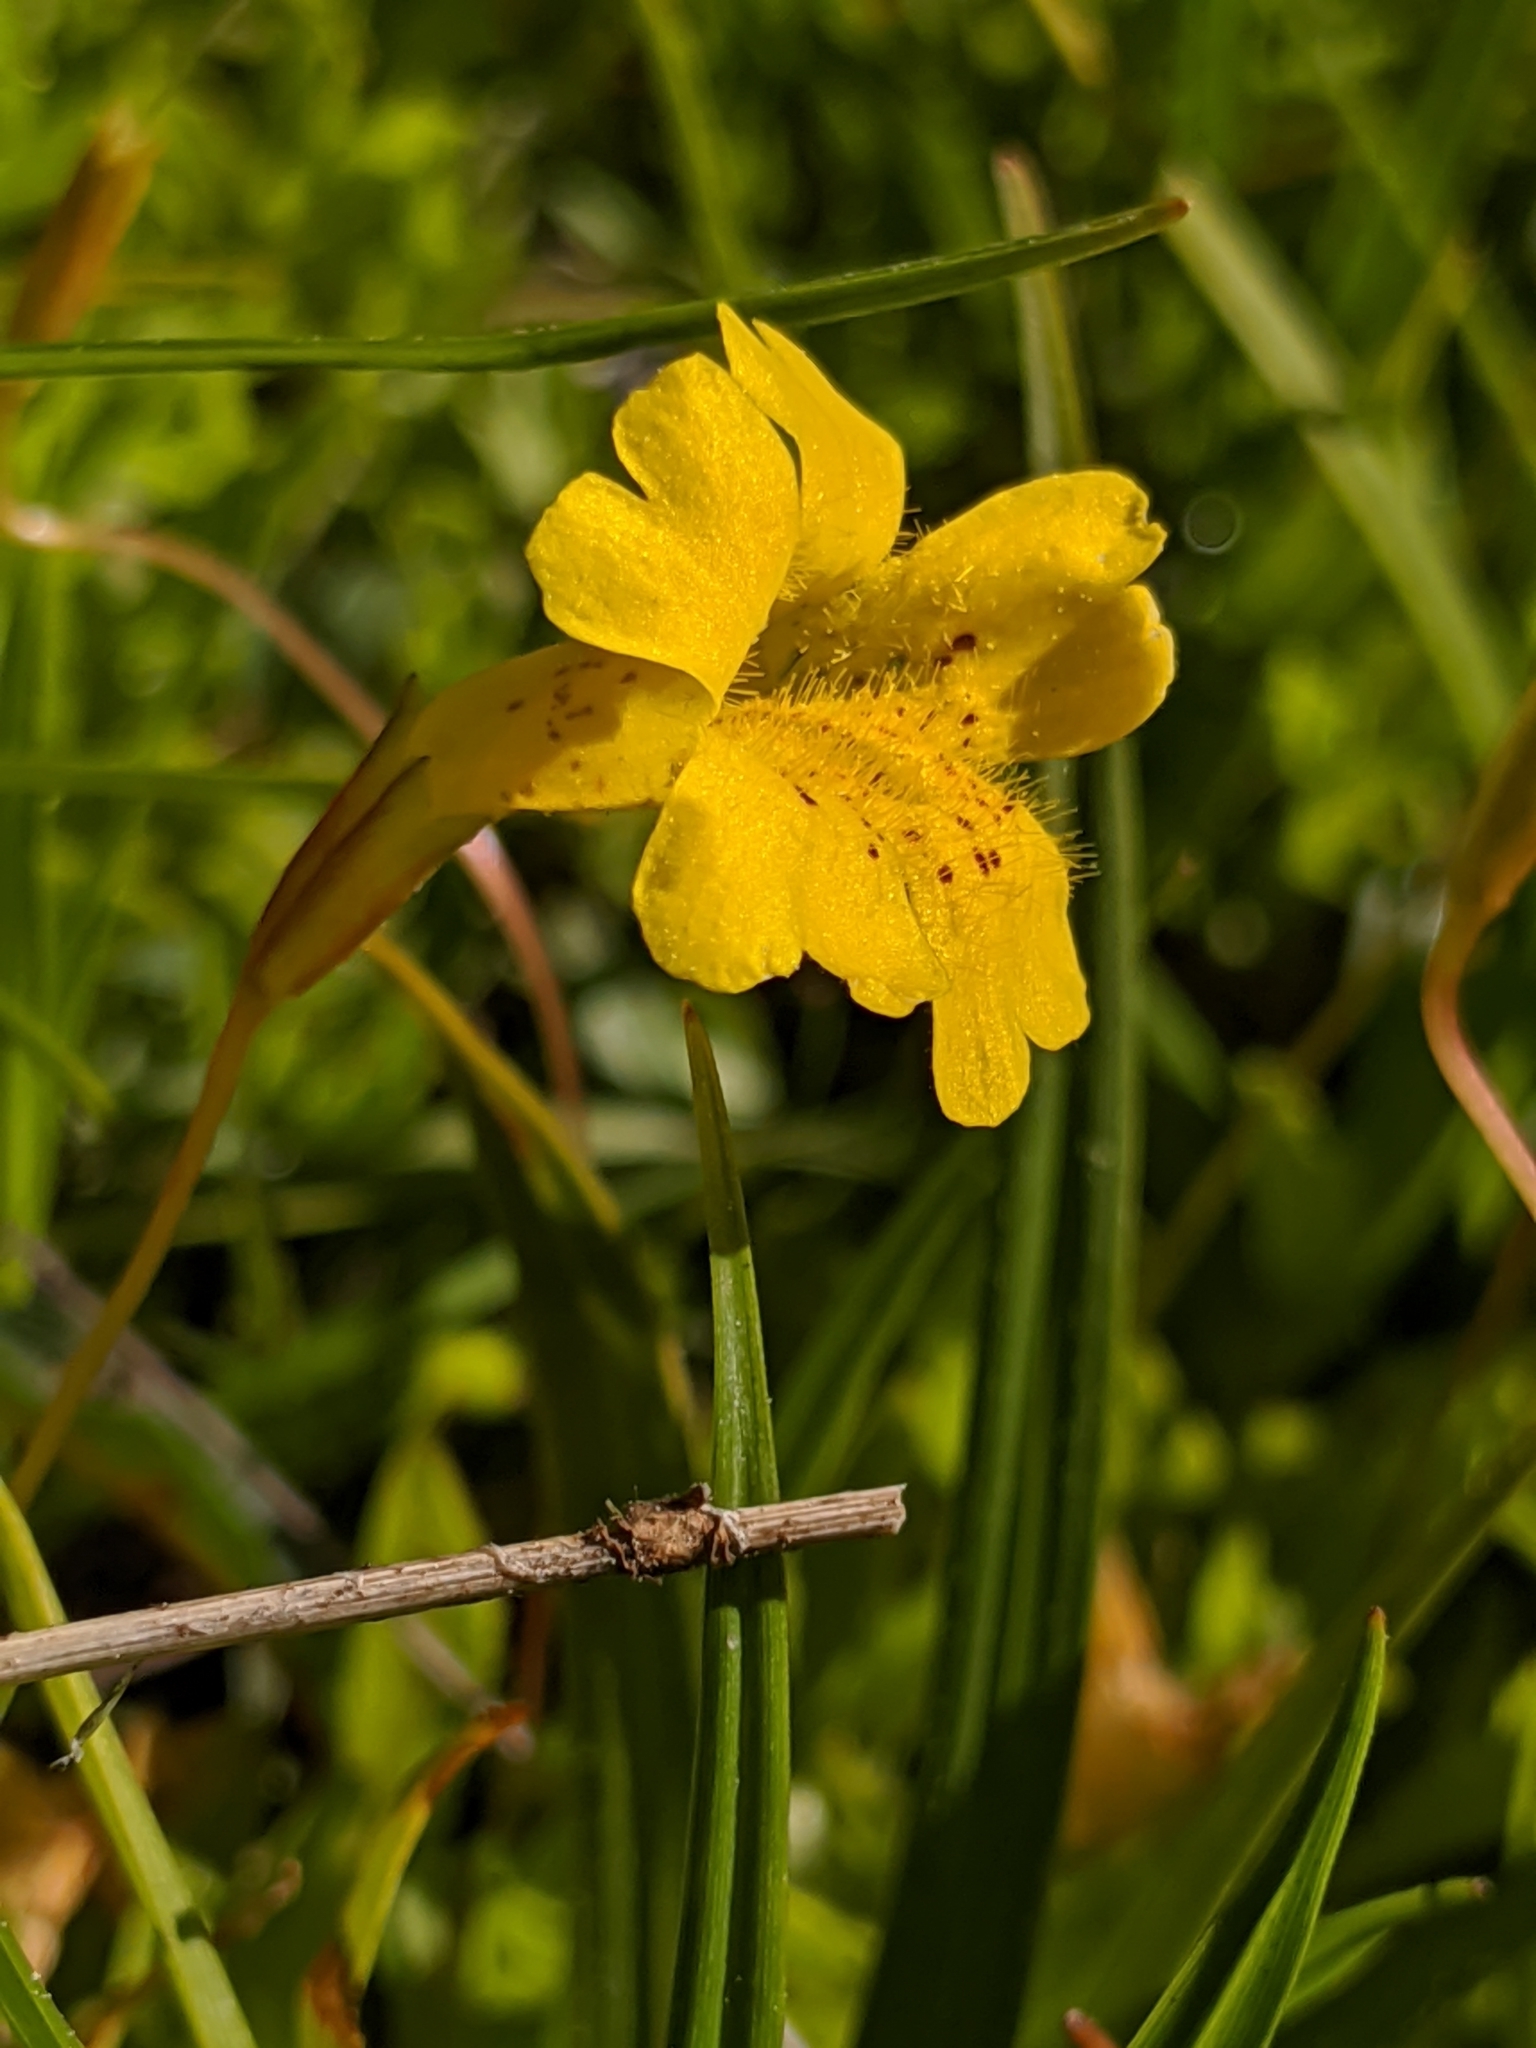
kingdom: Plantae
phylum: Tracheophyta
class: Magnoliopsida
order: Lamiales
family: Phrymaceae
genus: Erythranthe
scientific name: Erythranthe primuloides
